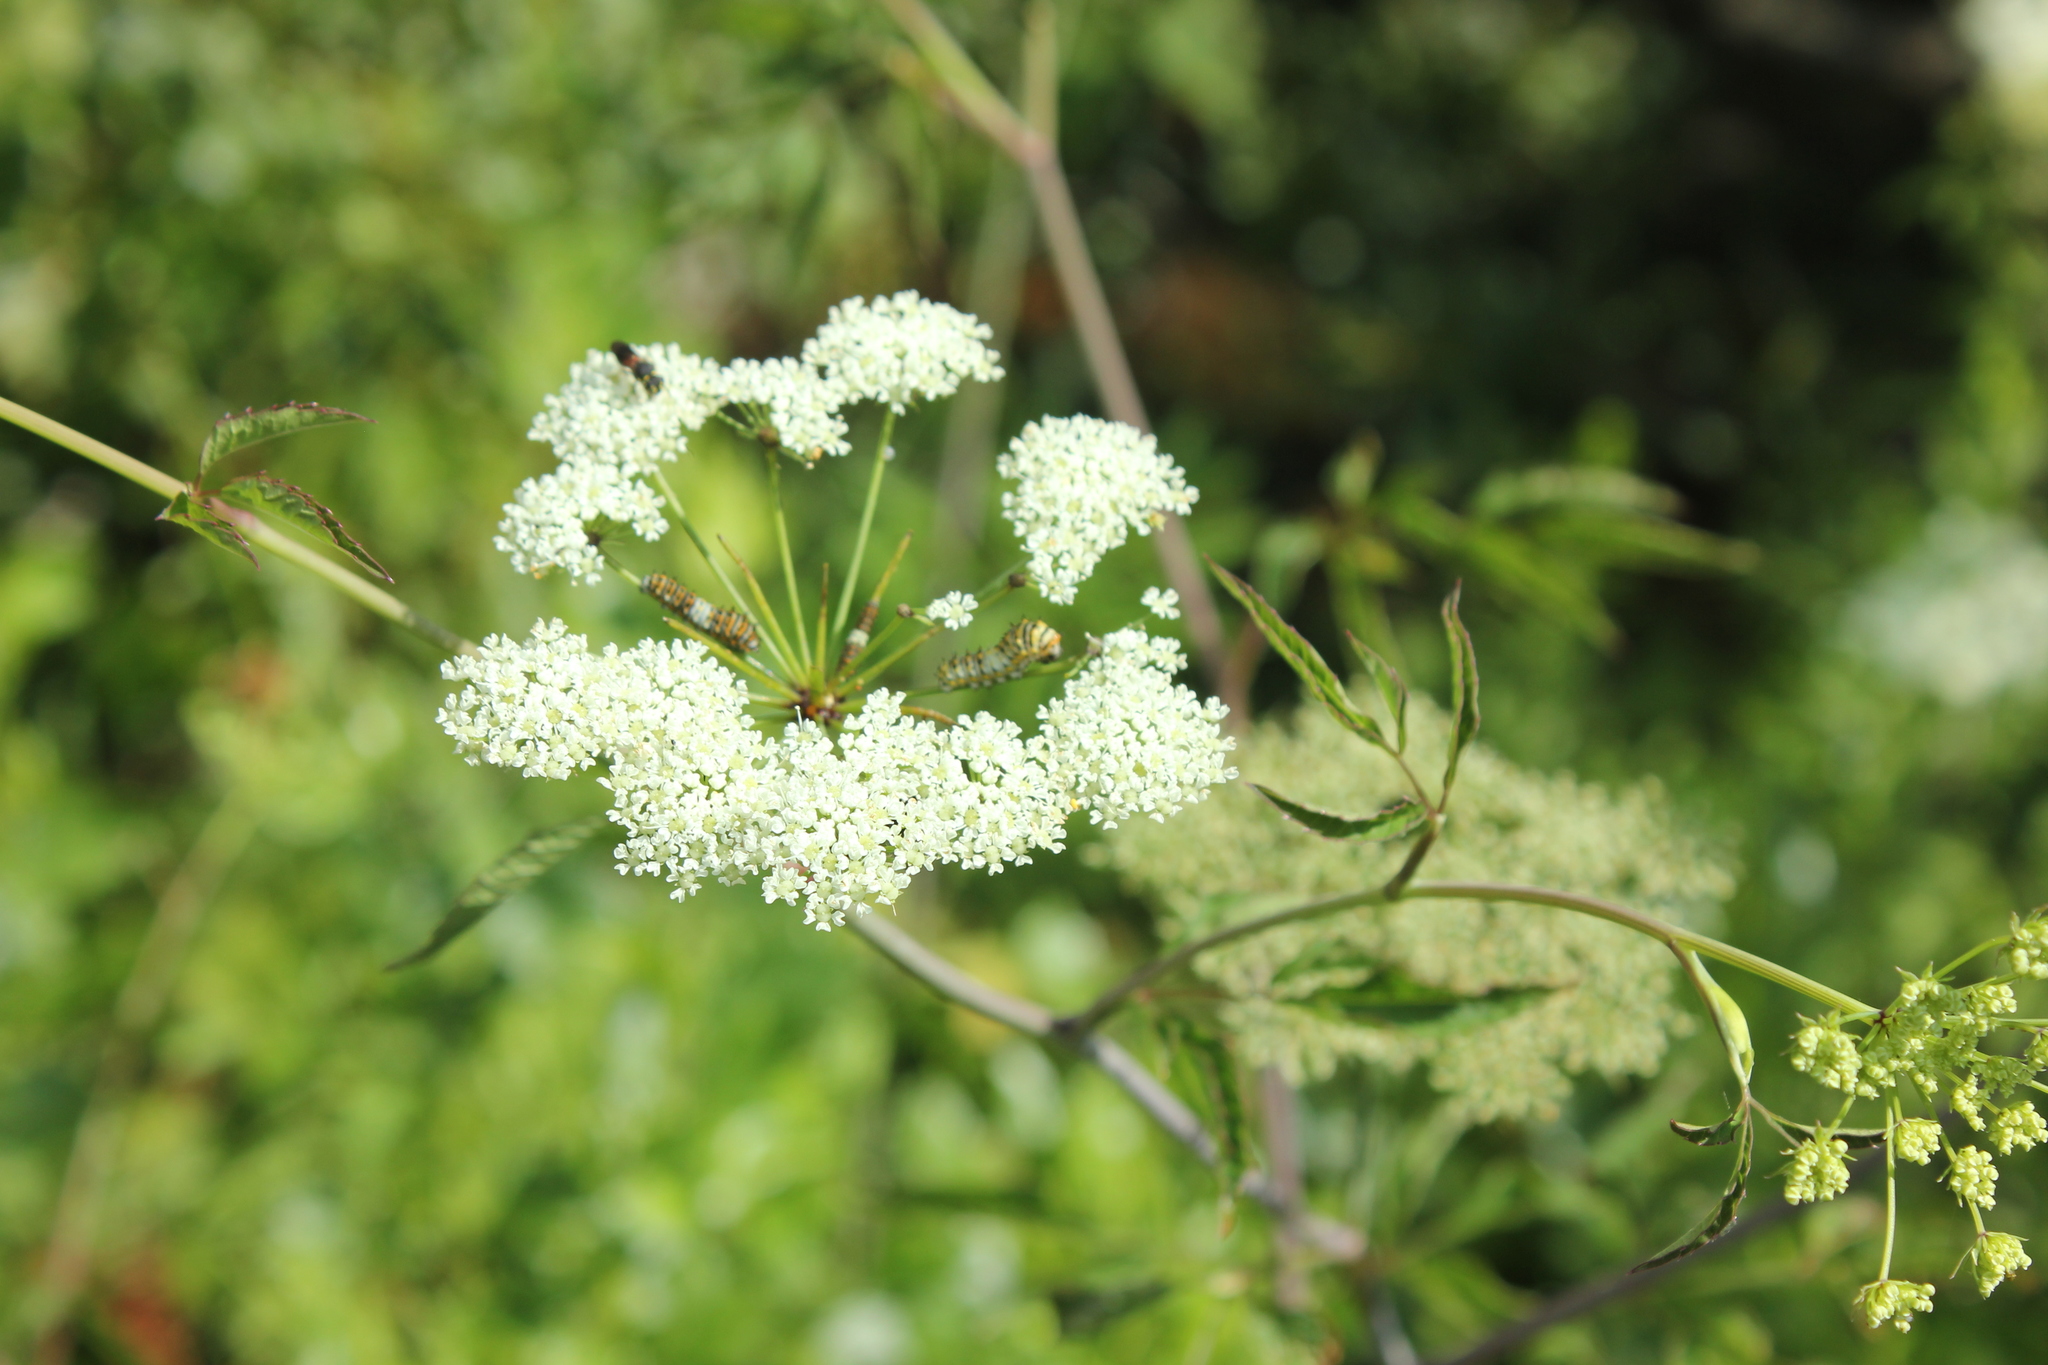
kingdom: Animalia
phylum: Arthropoda
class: Insecta
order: Lepidoptera
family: Papilionidae
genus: Papilio
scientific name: Papilio polyxenes
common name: Black swallowtail
